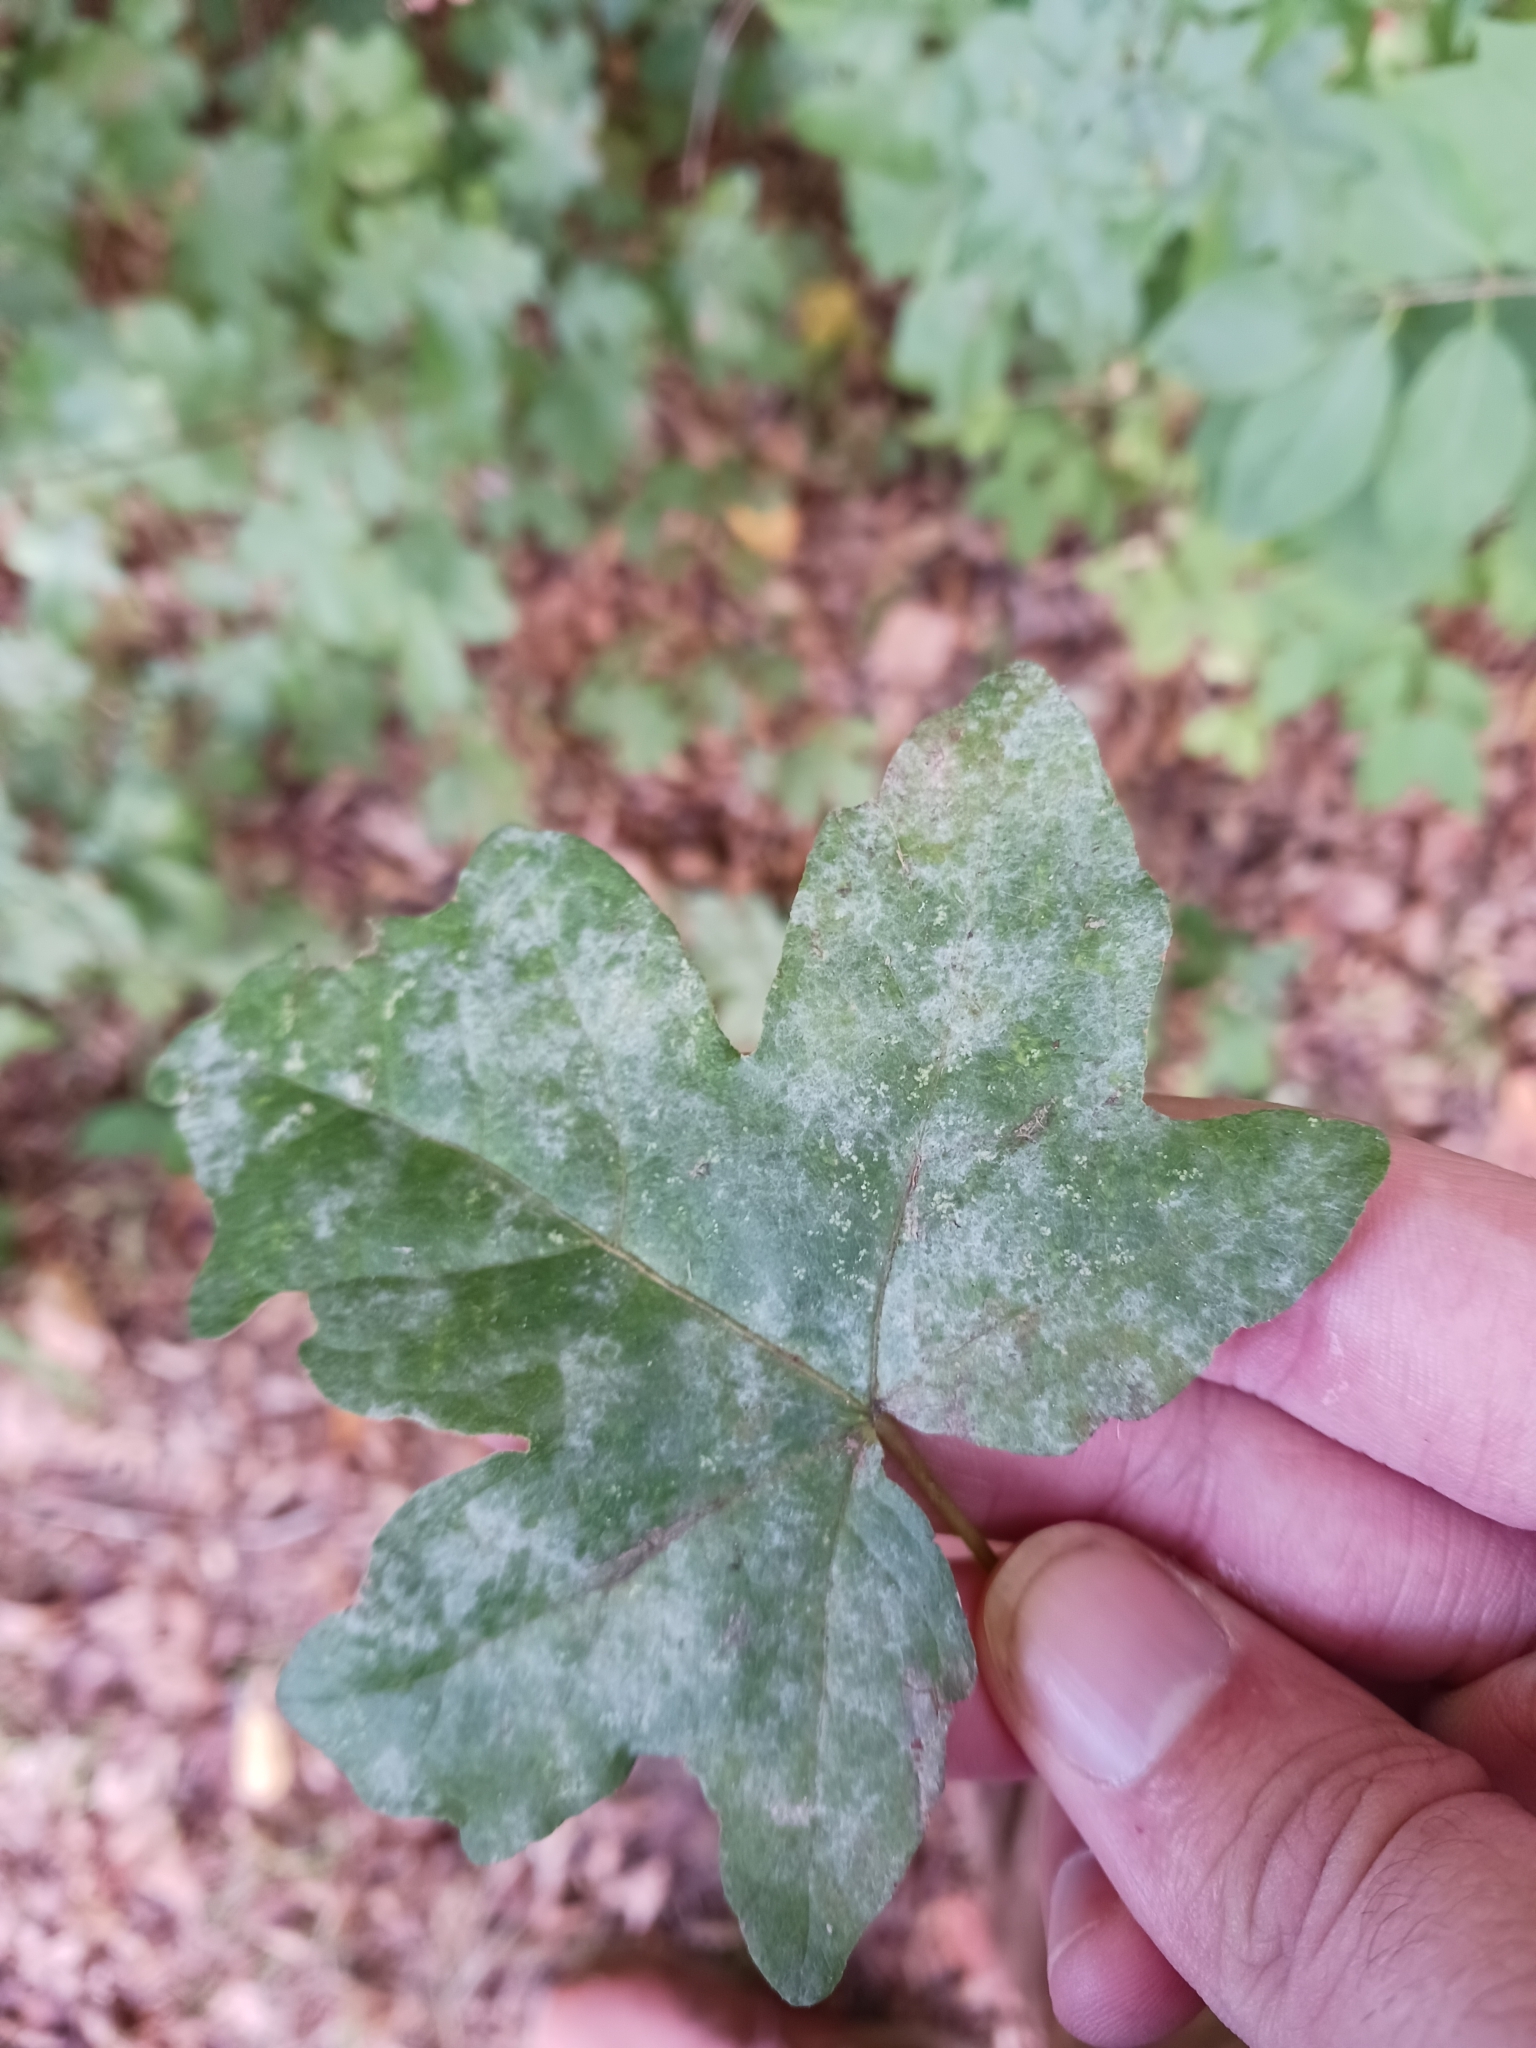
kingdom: Fungi
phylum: Ascomycota
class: Leotiomycetes
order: Helotiales
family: Erysiphaceae
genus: Sawadaea
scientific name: Sawadaea bicornis
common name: Maple mildew
